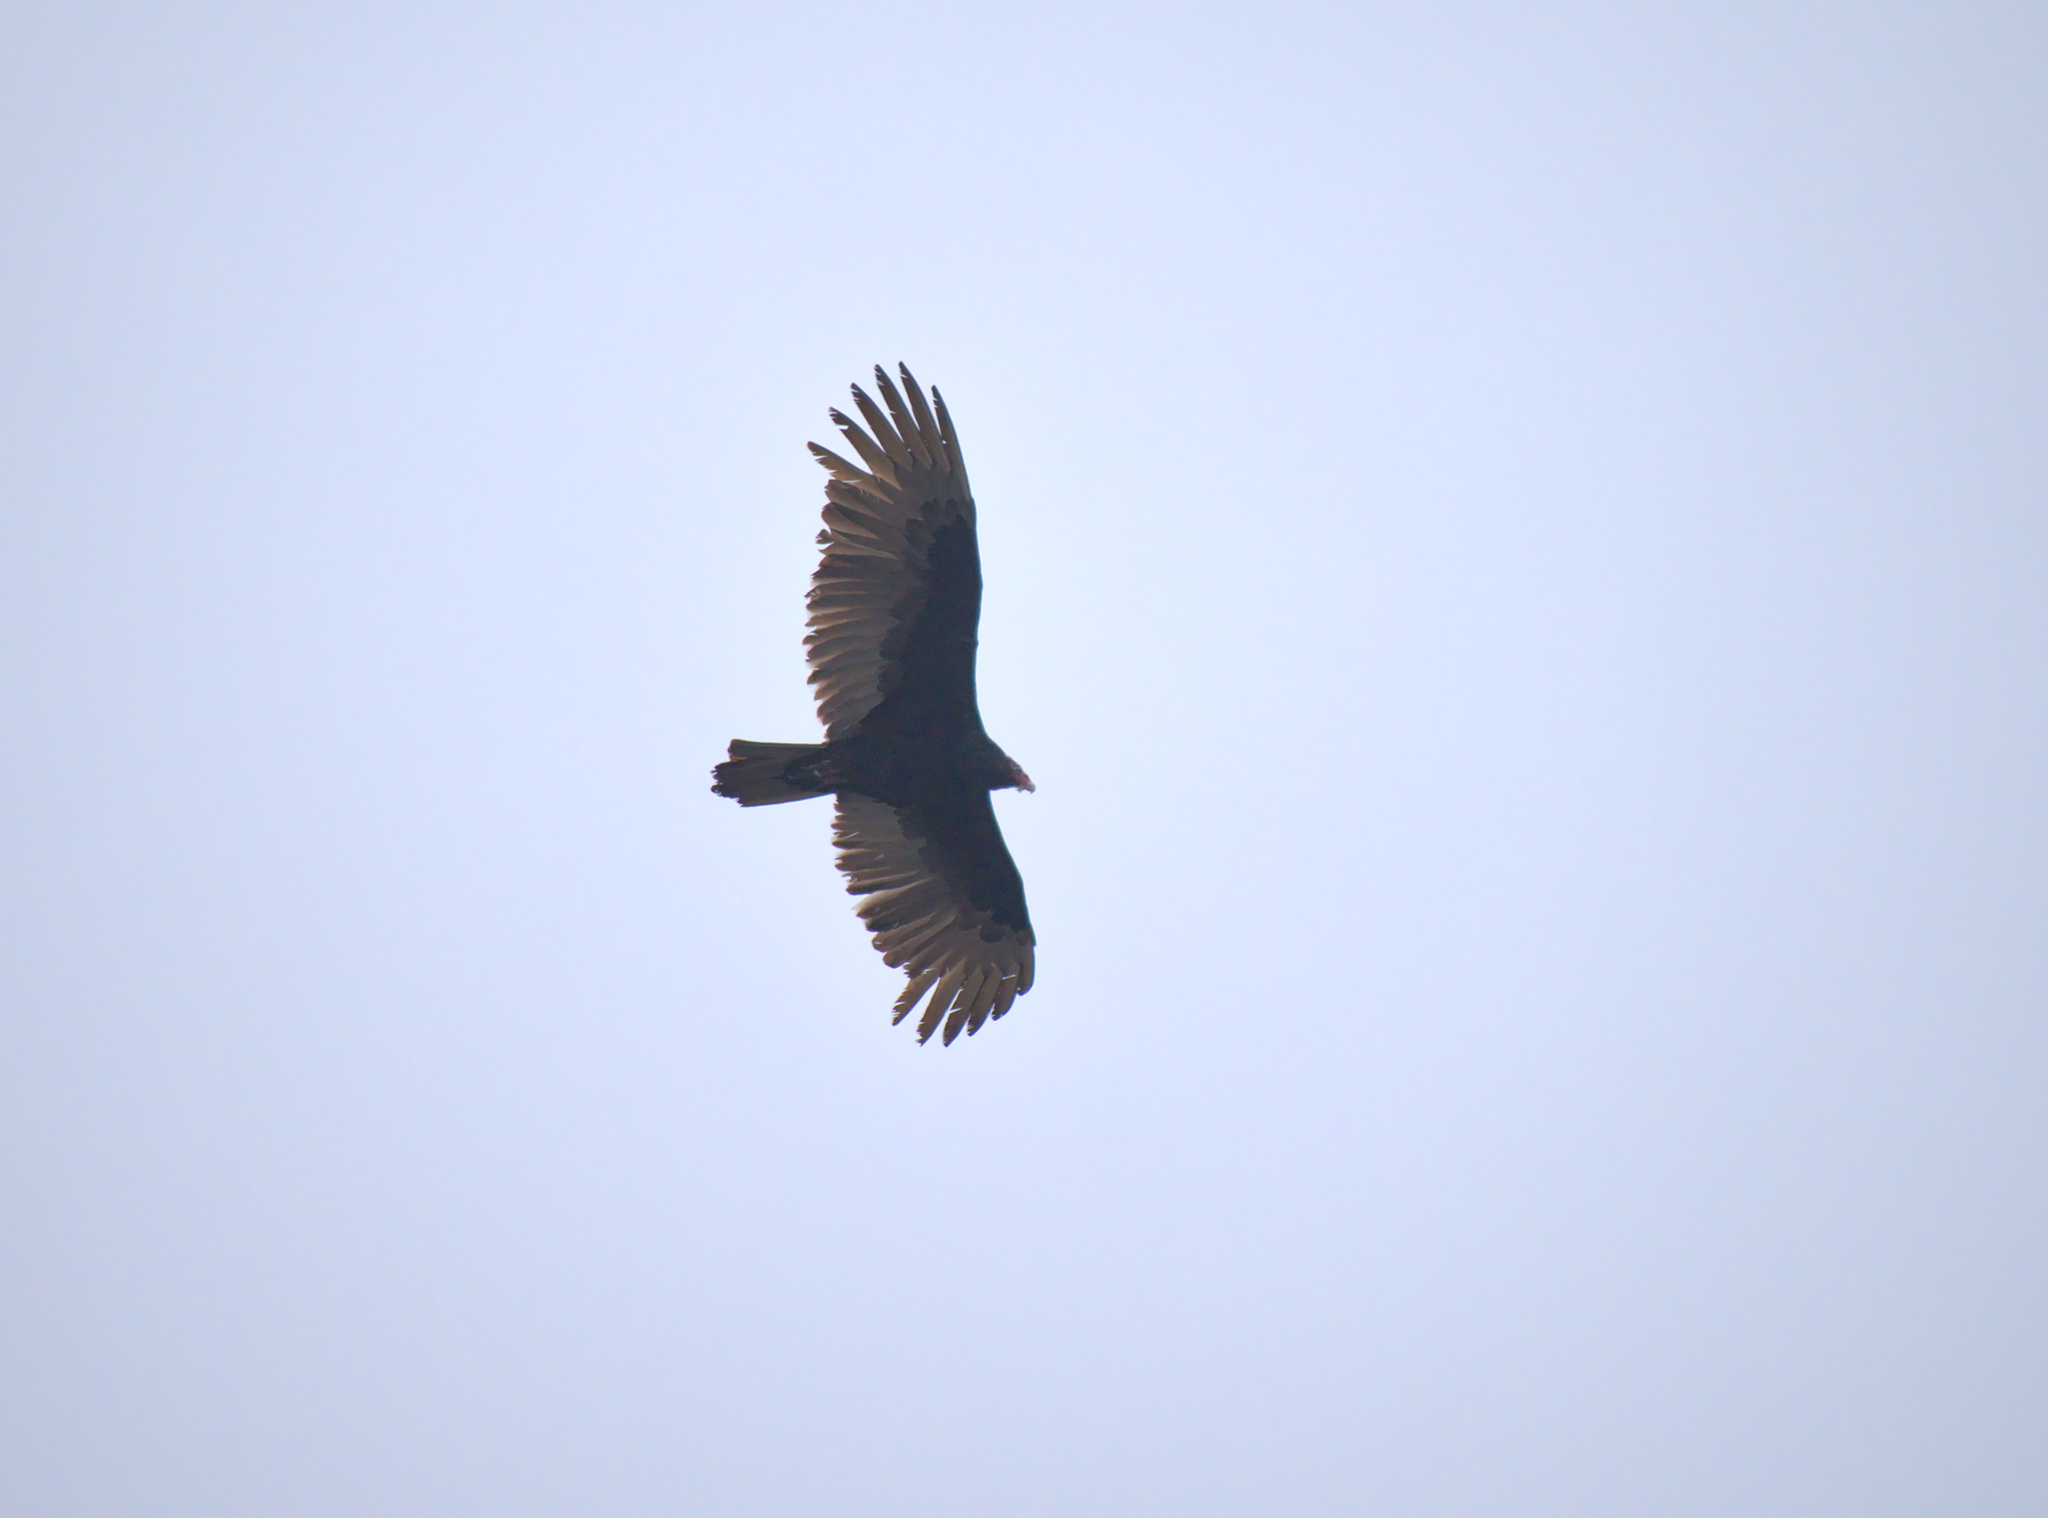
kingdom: Animalia
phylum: Chordata
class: Aves
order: Accipitriformes
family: Cathartidae
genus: Cathartes
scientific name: Cathartes aura
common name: Turkey vulture
